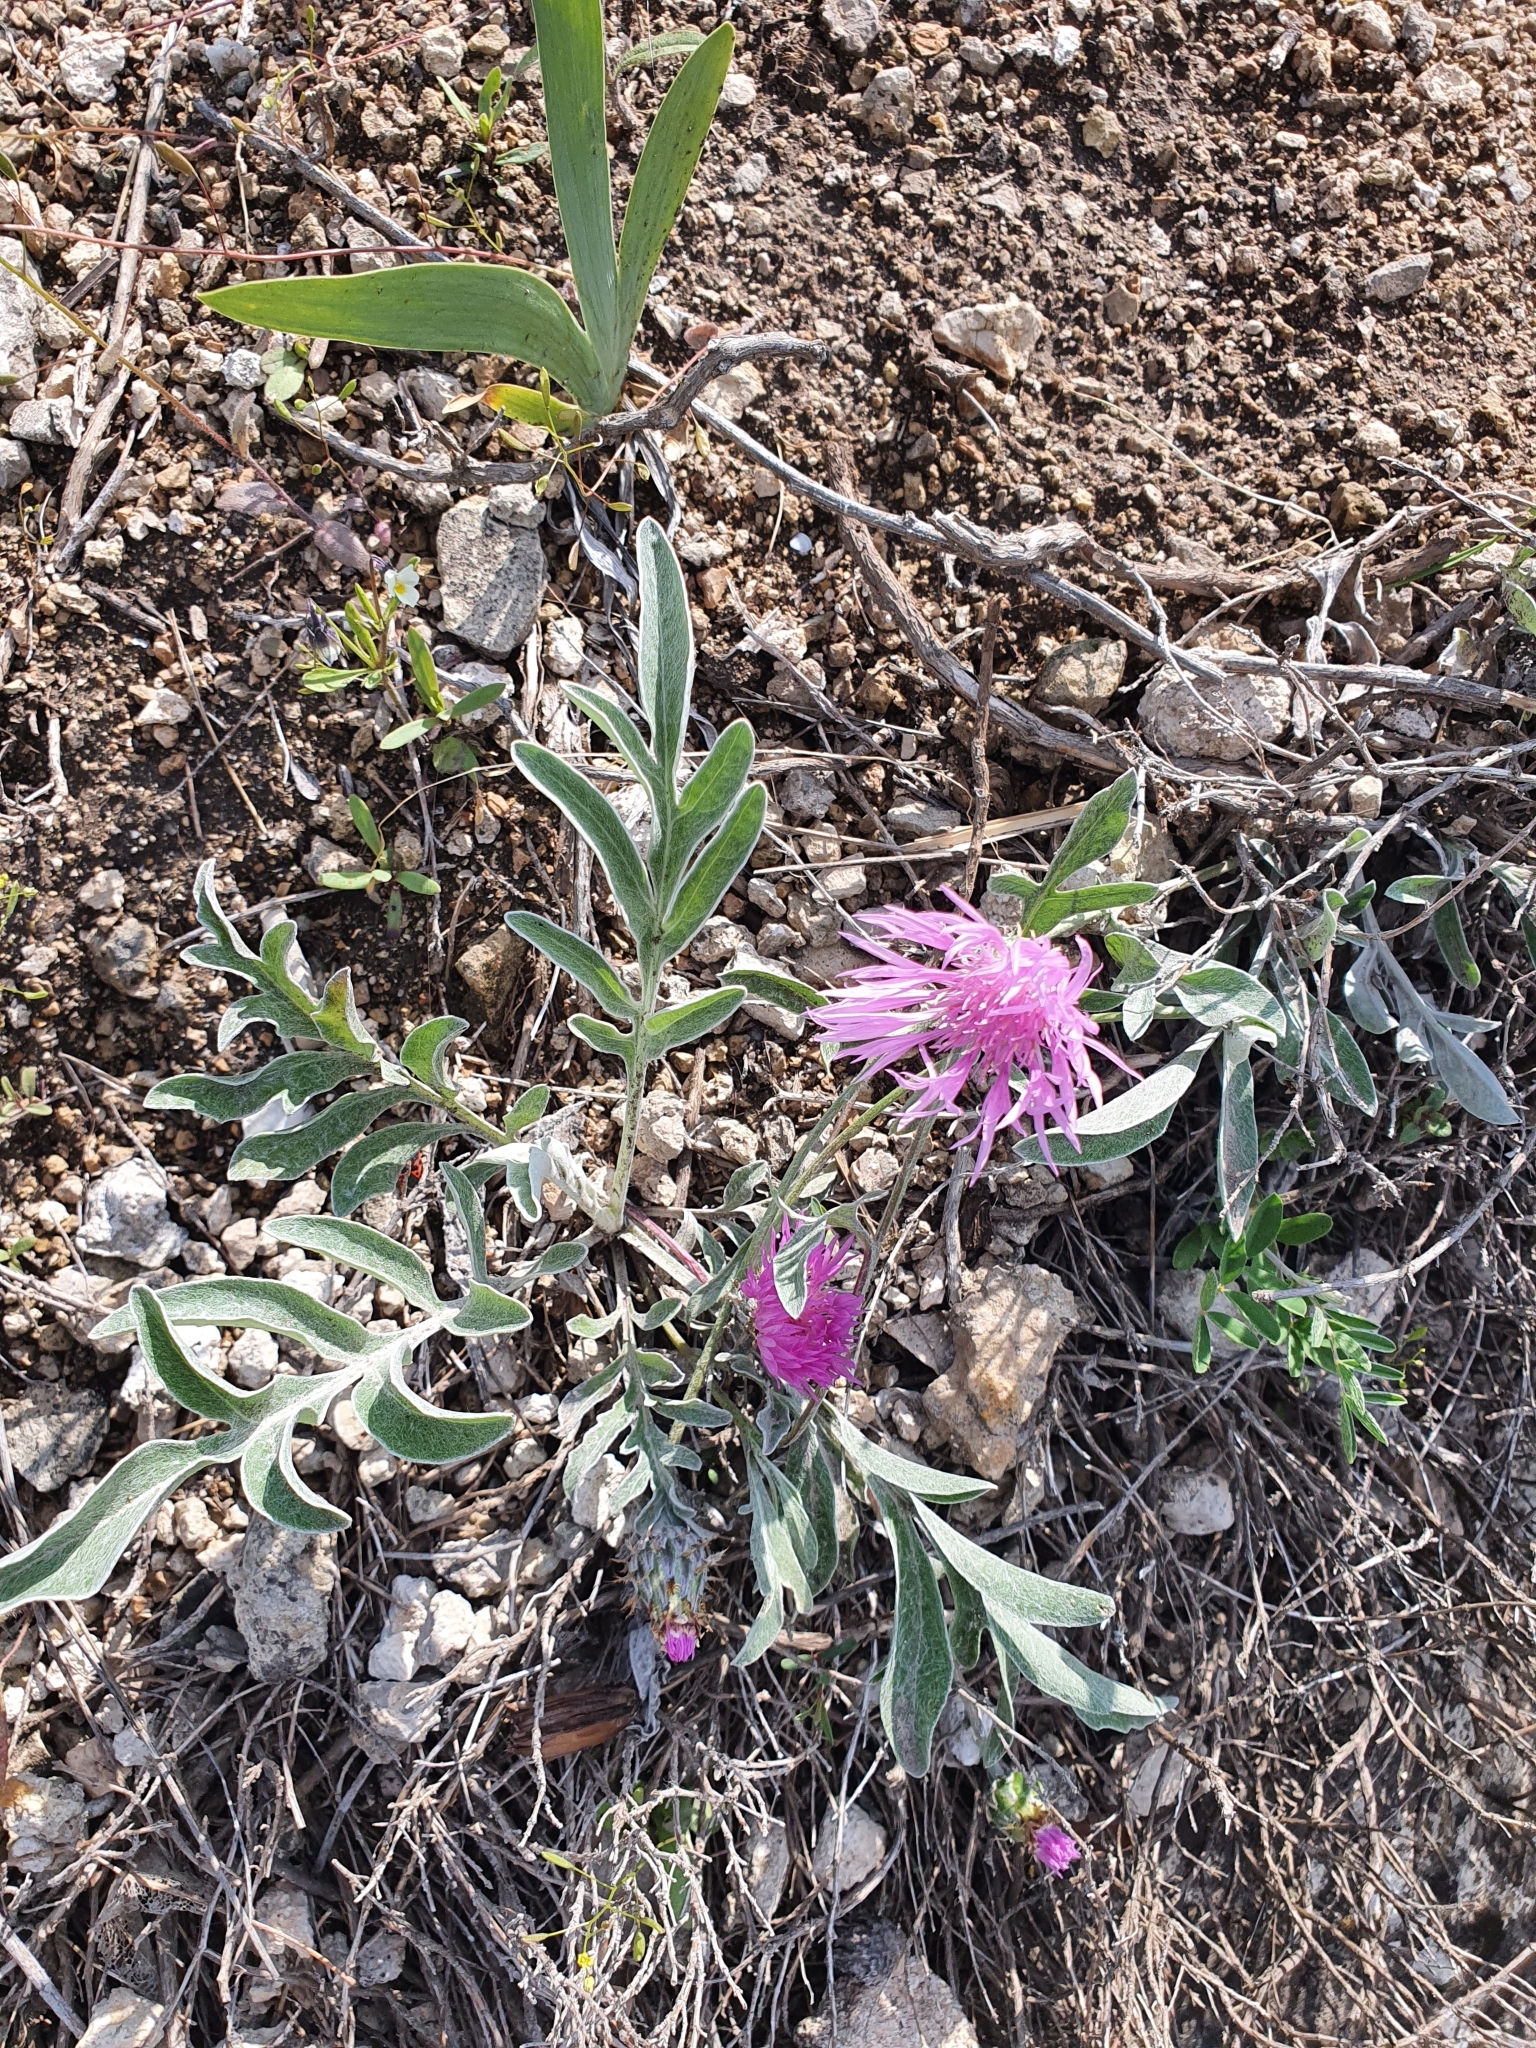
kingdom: Plantae
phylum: Tracheophyta
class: Magnoliopsida
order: Asterales
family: Asteraceae
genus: Psephellus
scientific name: Psephellus marschallianus
